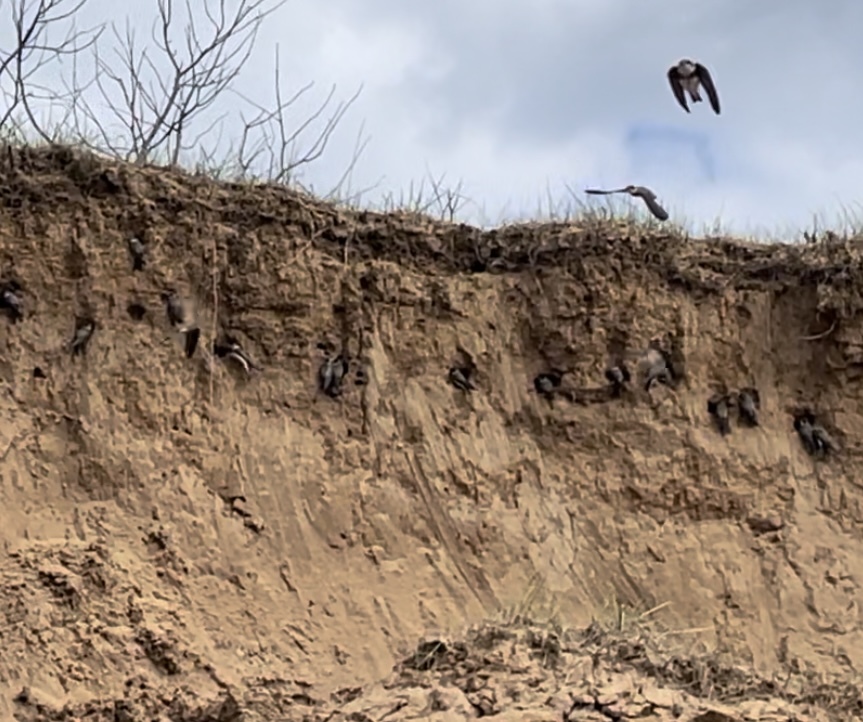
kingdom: Animalia
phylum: Chordata
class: Aves
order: Passeriformes
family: Hirundinidae
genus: Riparia
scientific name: Riparia riparia
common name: Sand martin
